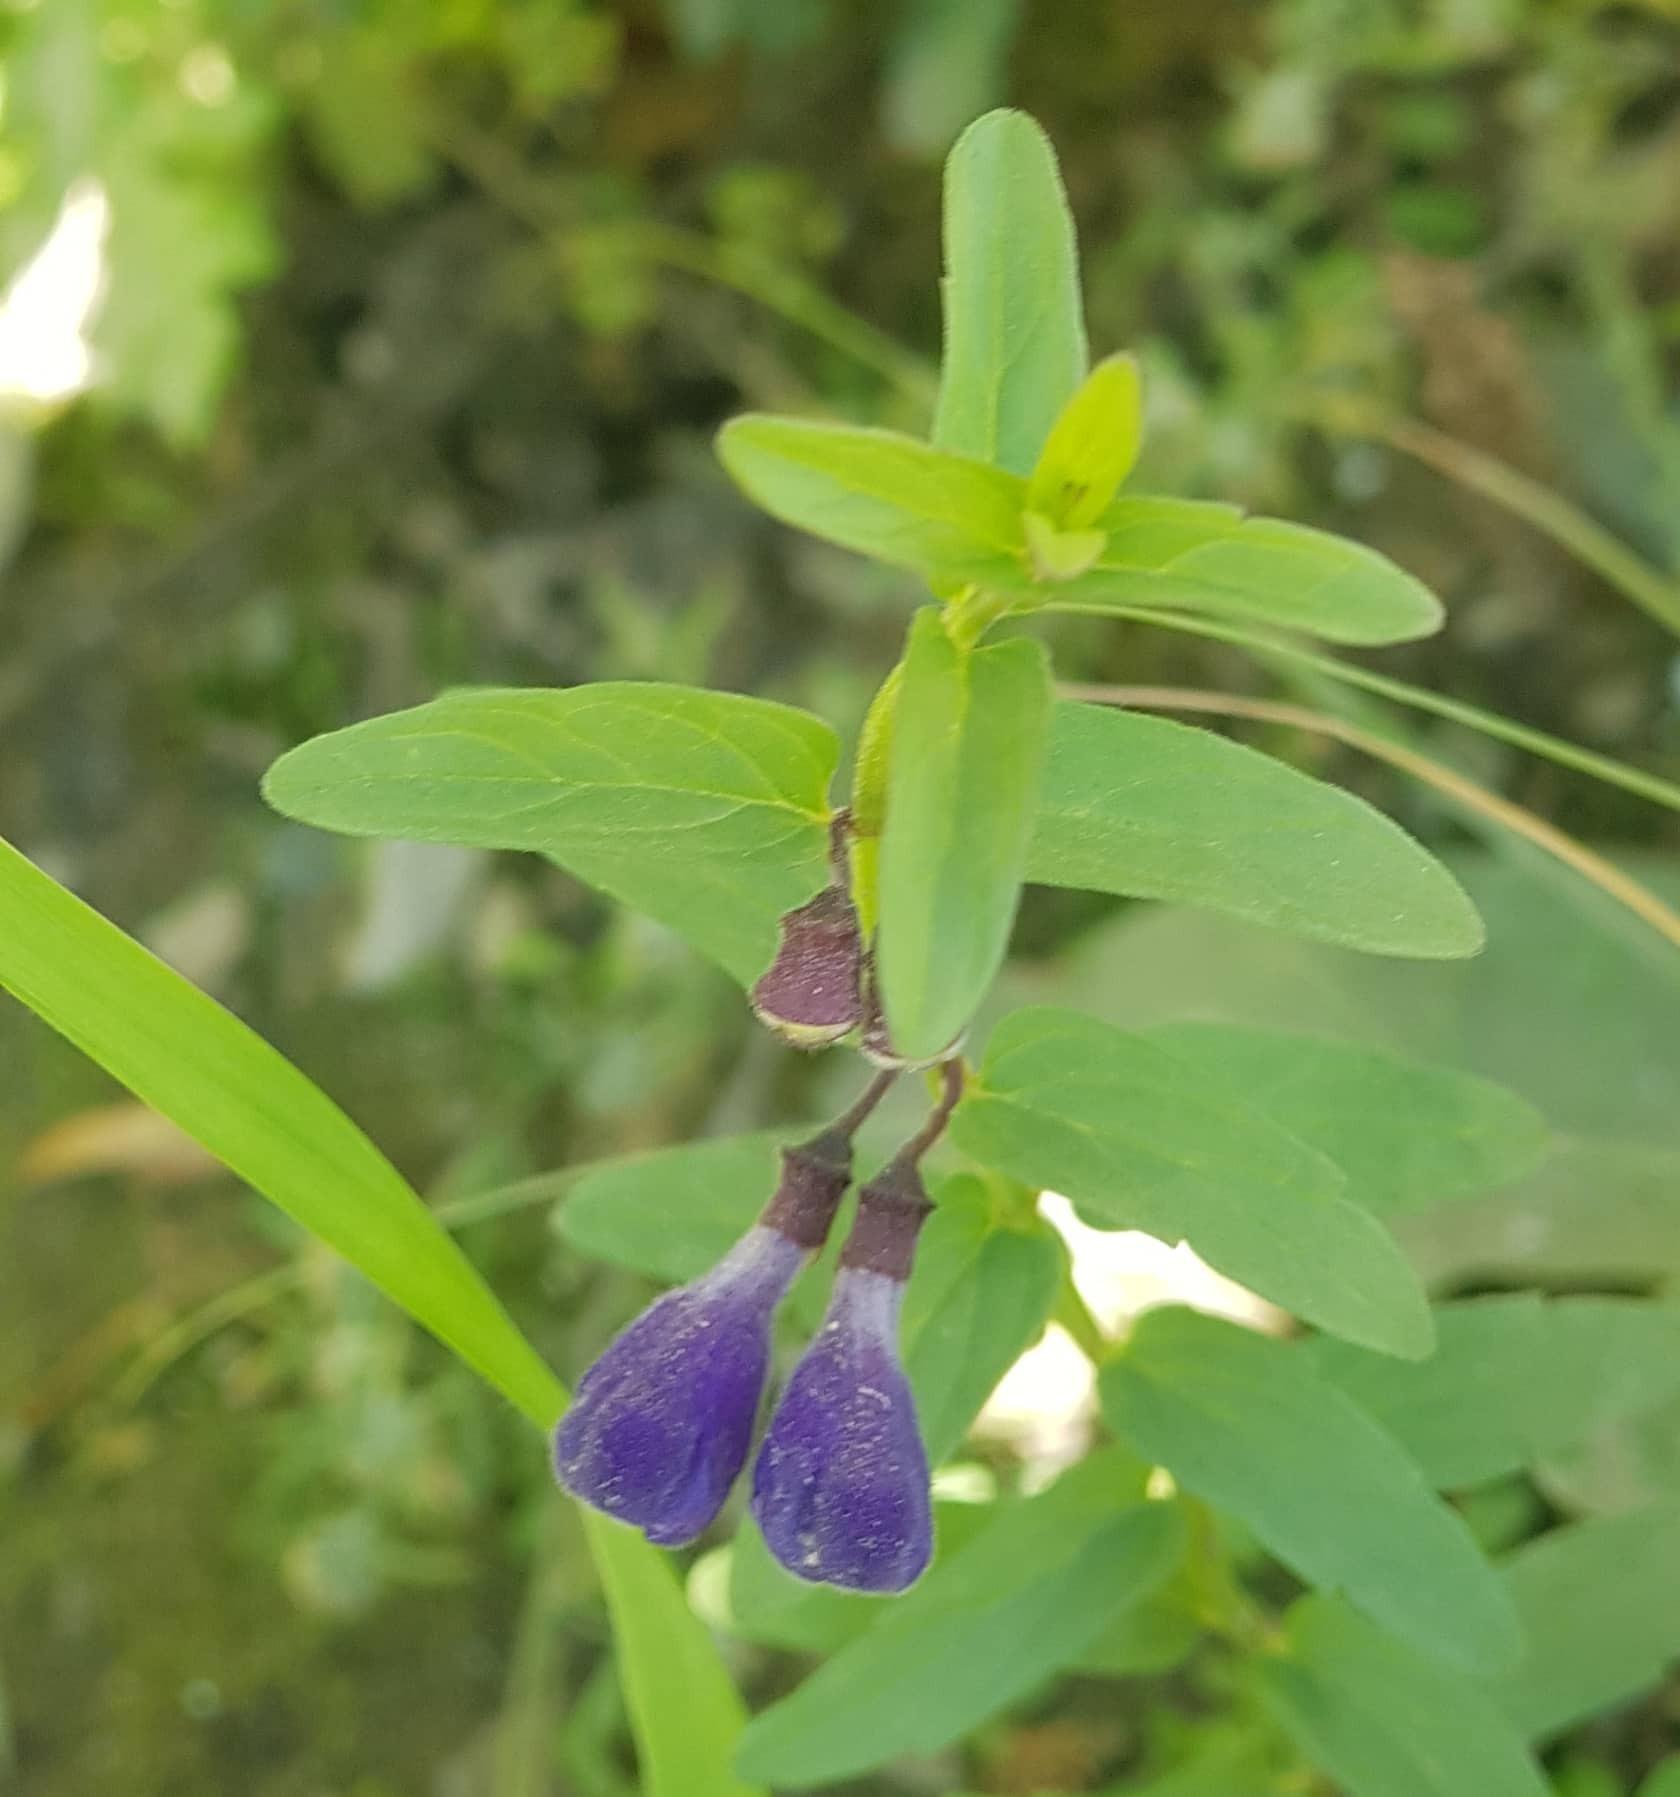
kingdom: Plantae
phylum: Tracheophyta
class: Magnoliopsida
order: Lamiales
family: Lamiaceae
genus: Scutellaria
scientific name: Scutellaria galericulata
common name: Skullcap
